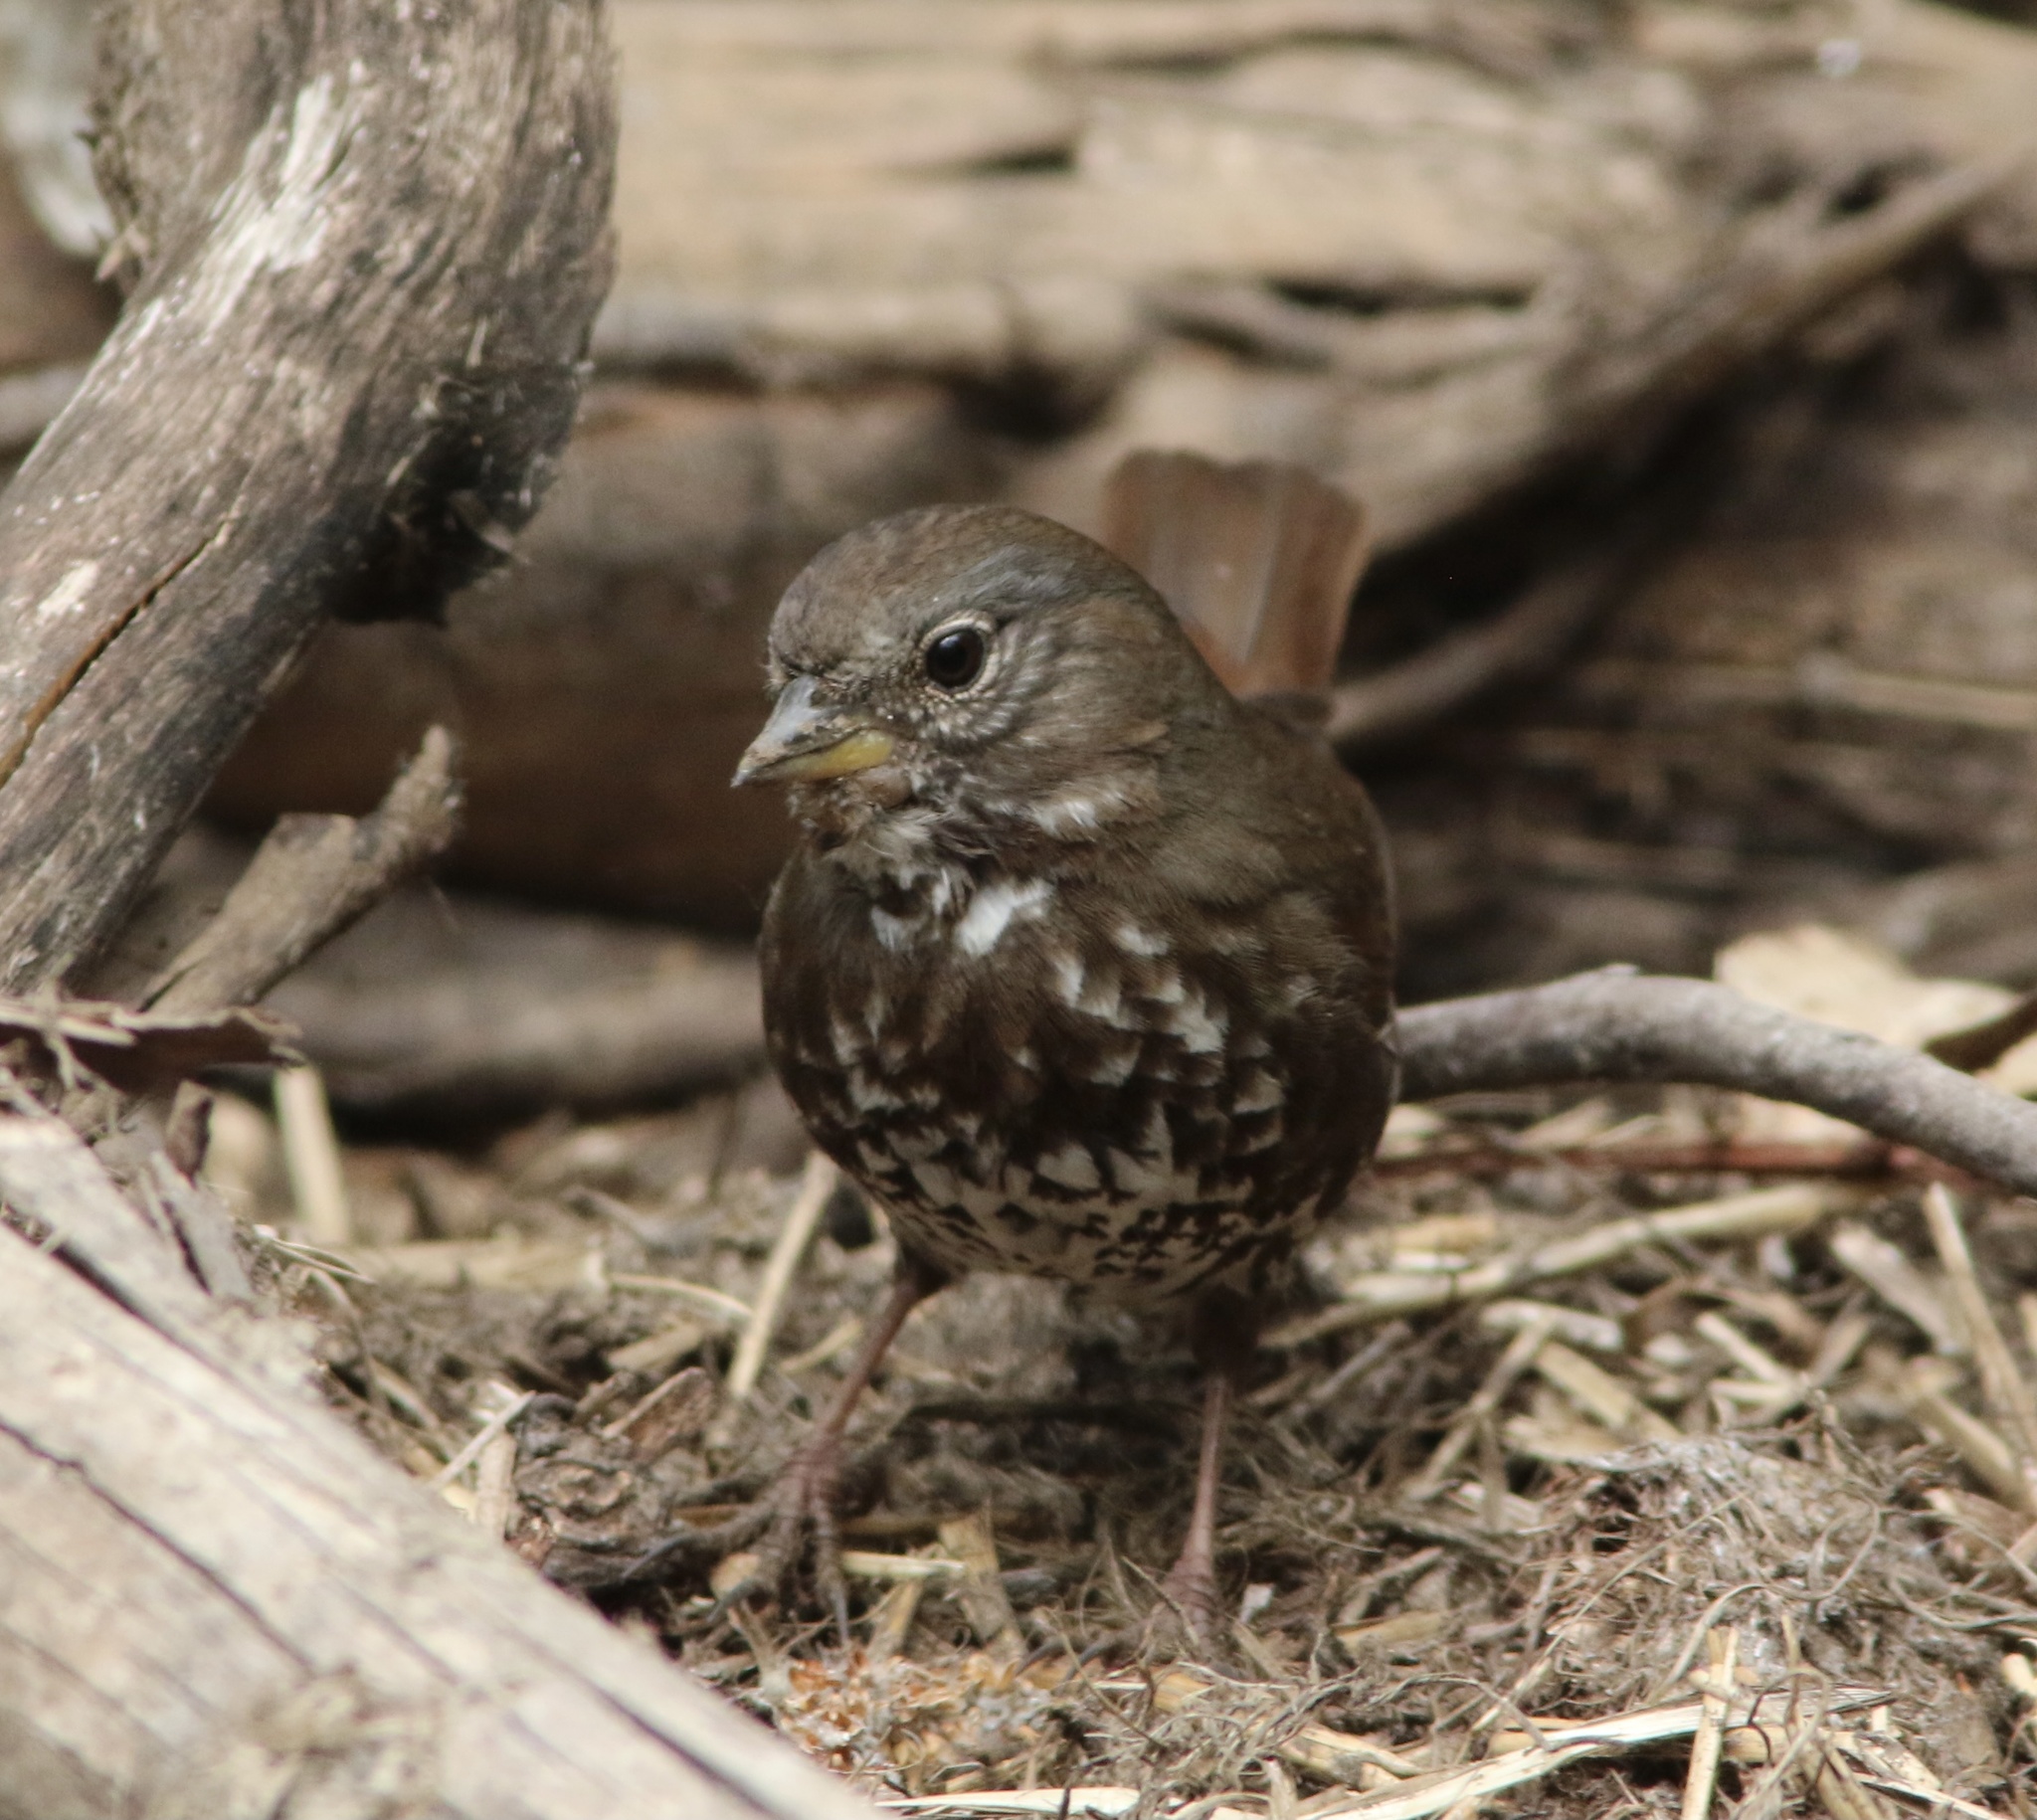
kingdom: Animalia
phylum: Chordata
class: Aves
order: Passeriformes
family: Passerellidae
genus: Passerella
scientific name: Passerella iliaca
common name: Fox sparrow
